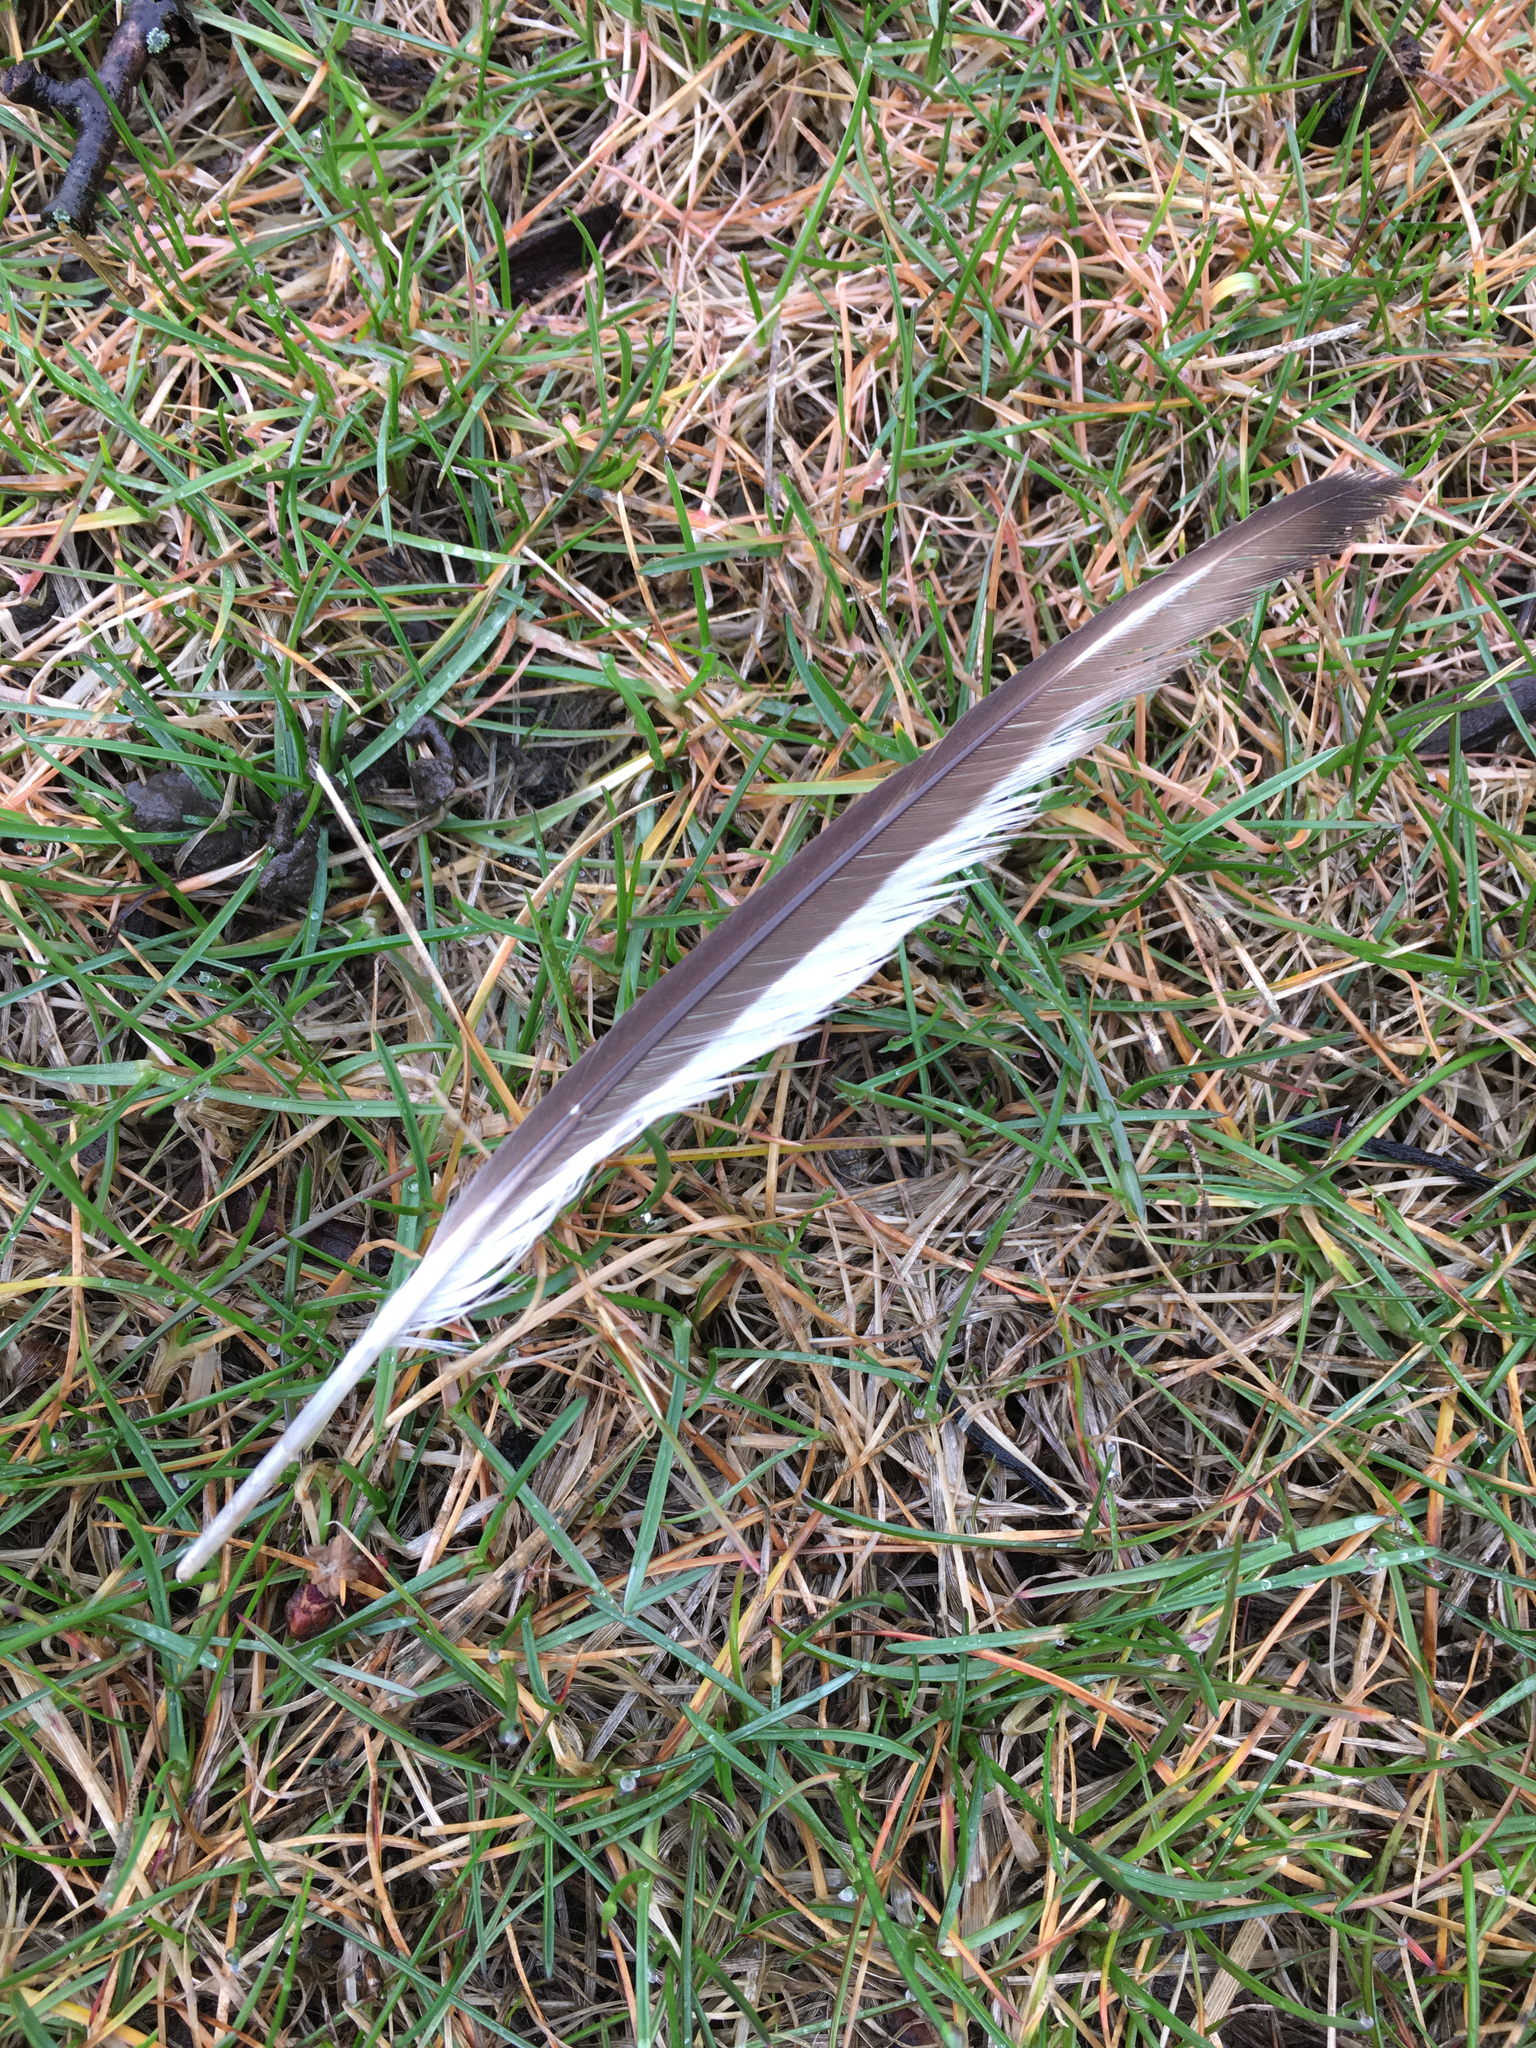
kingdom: Animalia
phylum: Chordata
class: Aves
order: Charadriiformes
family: Charadriidae
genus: Charadrius
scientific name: Charadrius vociferus
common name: Killdeer
